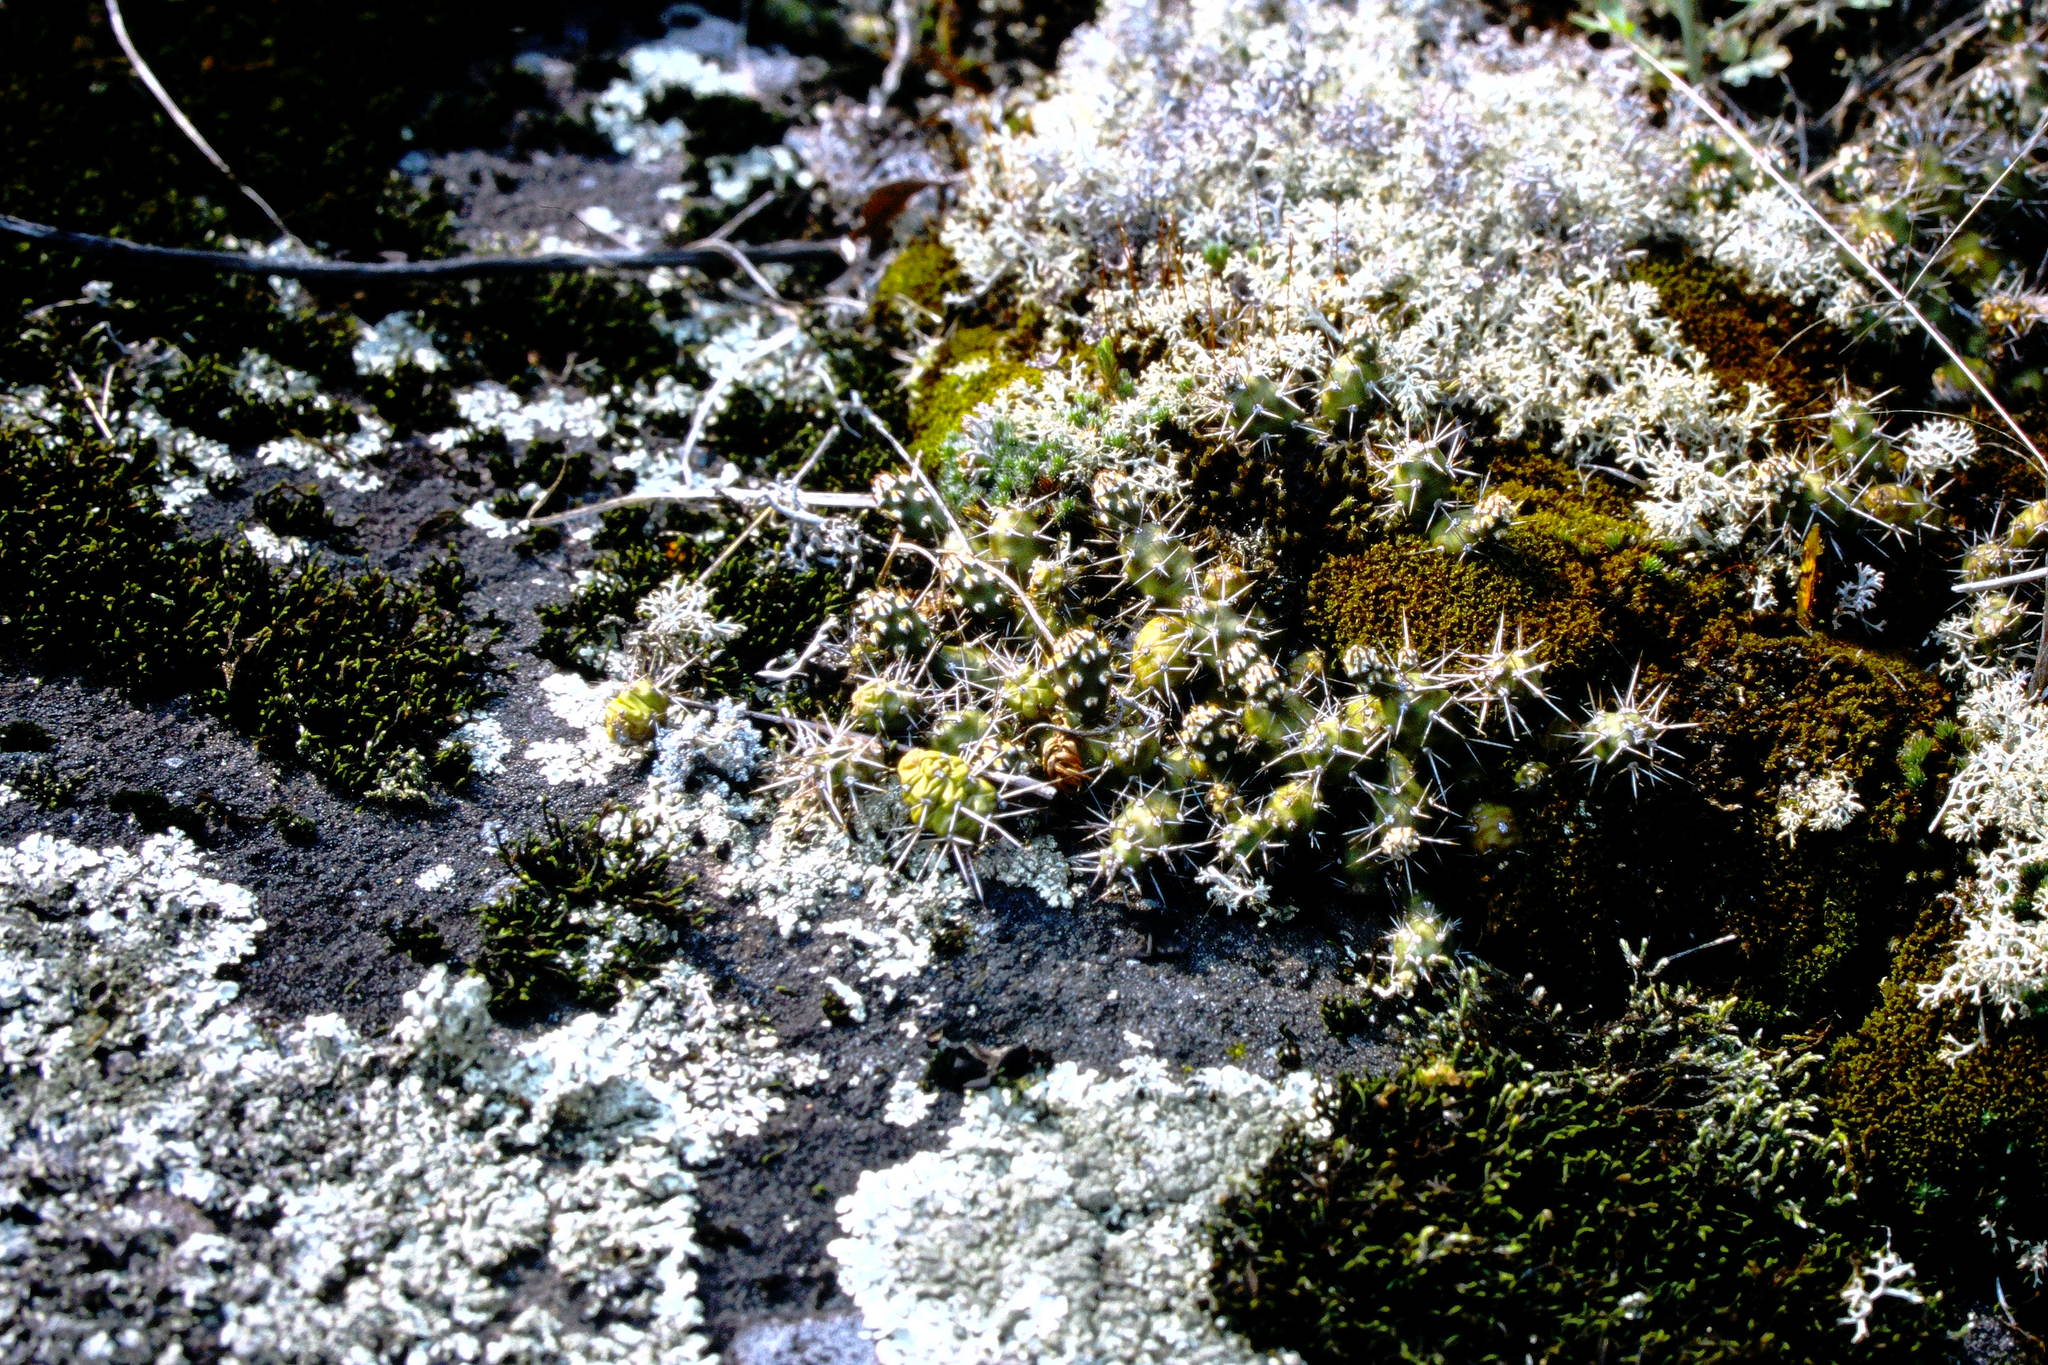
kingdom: Plantae
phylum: Tracheophyta
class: Magnoliopsida
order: Caryophyllales
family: Cactaceae
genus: Opuntia
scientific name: Opuntia fragilis
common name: Brittle cactus
